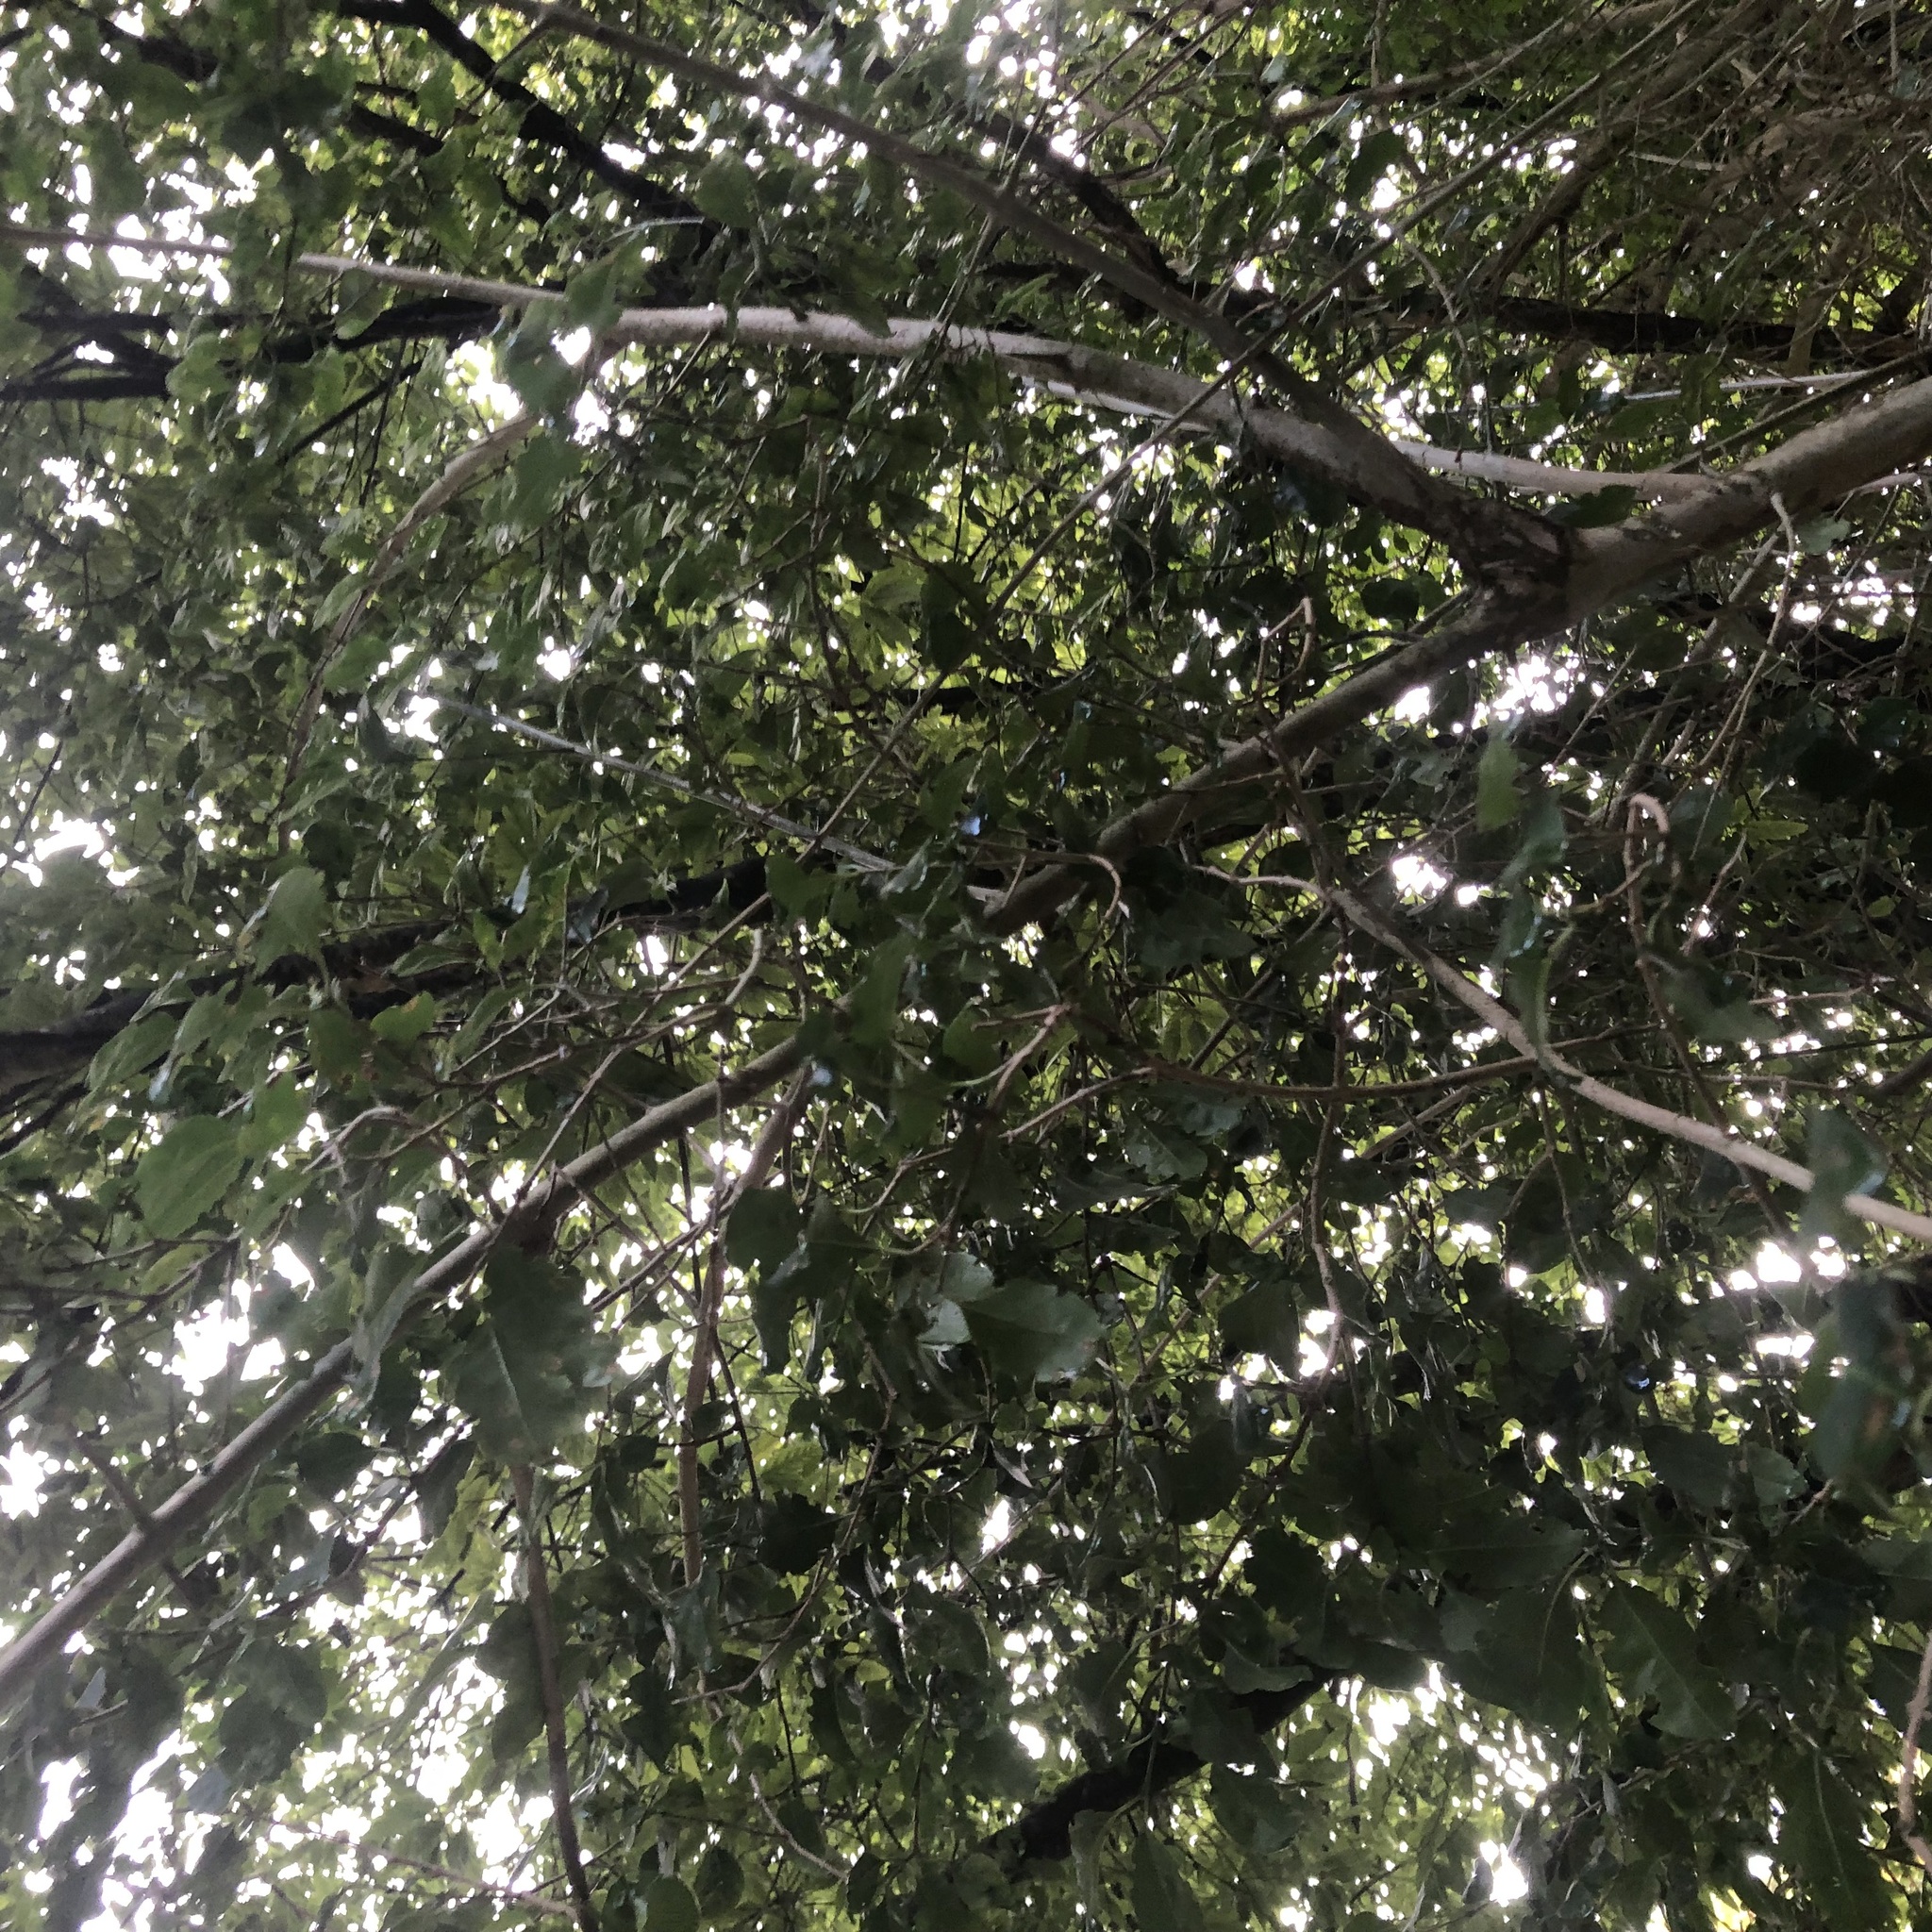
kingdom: Plantae
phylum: Tracheophyta
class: Magnoliopsida
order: Gentianales
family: Rubiaceae
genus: Afrocanthium
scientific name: Afrocanthium mundianum
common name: Rock-alder
